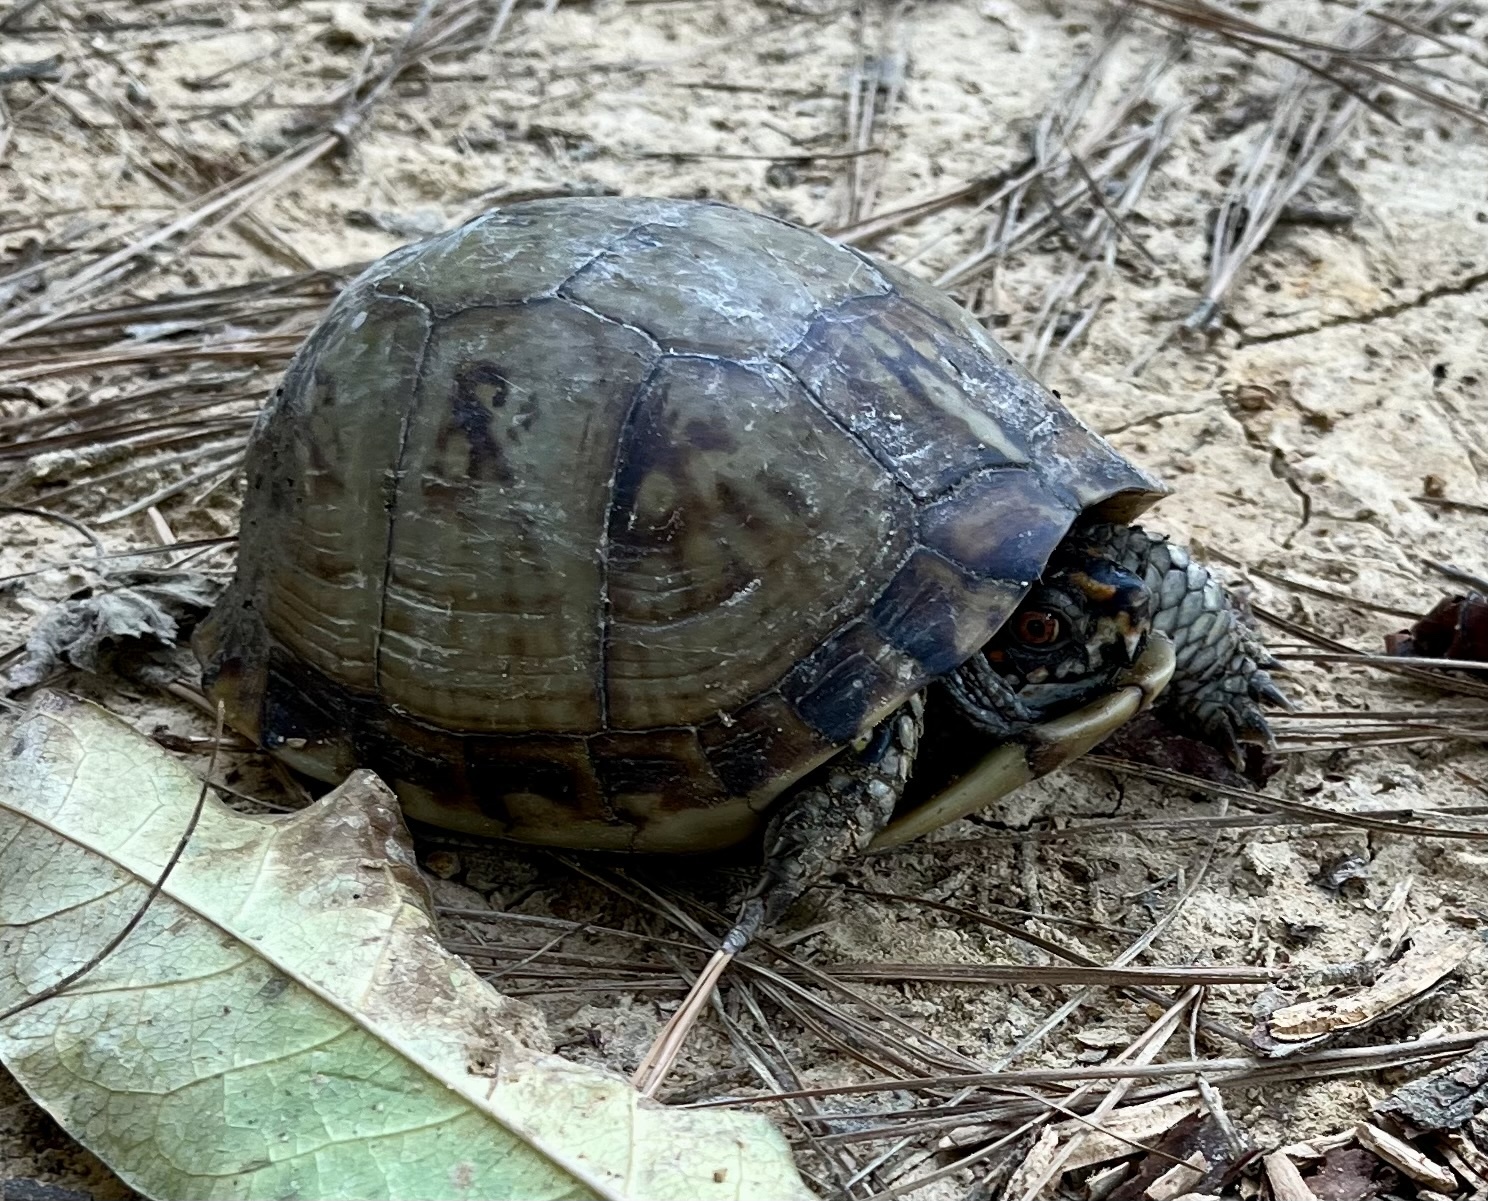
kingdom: Animalia
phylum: Chordata
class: Testudines
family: Emydidae
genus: Terrapene
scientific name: Terrapene carolina
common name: Common box turtle
